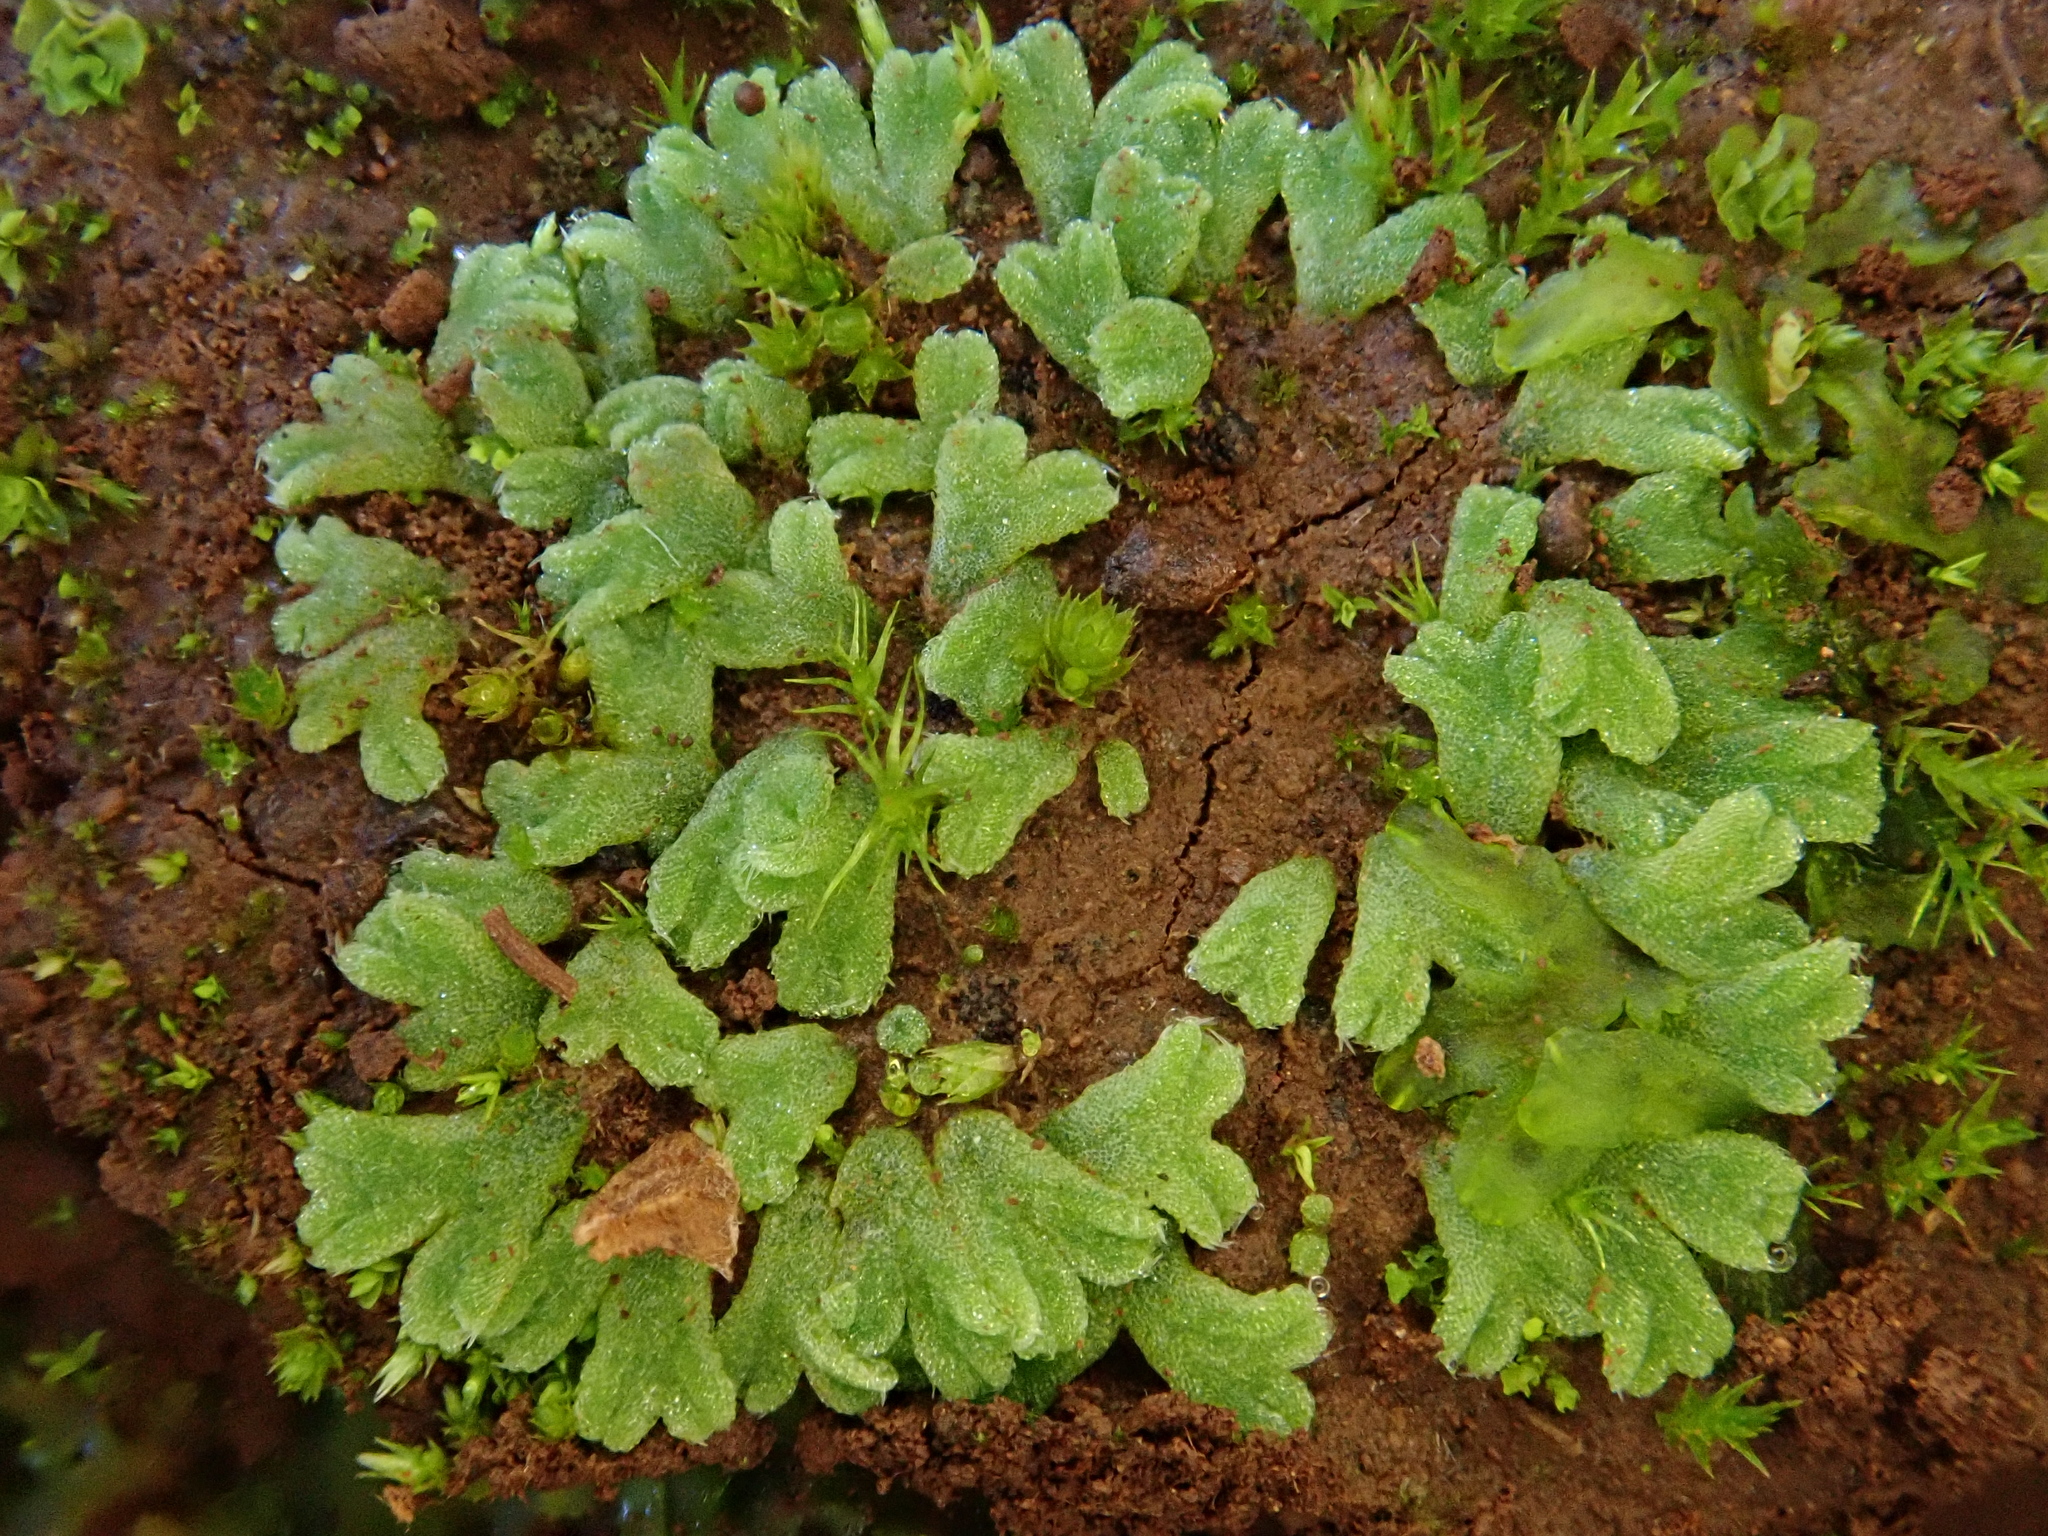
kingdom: Plantae
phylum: Marchantiophyta
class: Marchantiopsida
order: Marchantiales
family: Ricciaceae
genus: Riccia
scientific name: Riccia crozalsii
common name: Ciliate crystalwort
